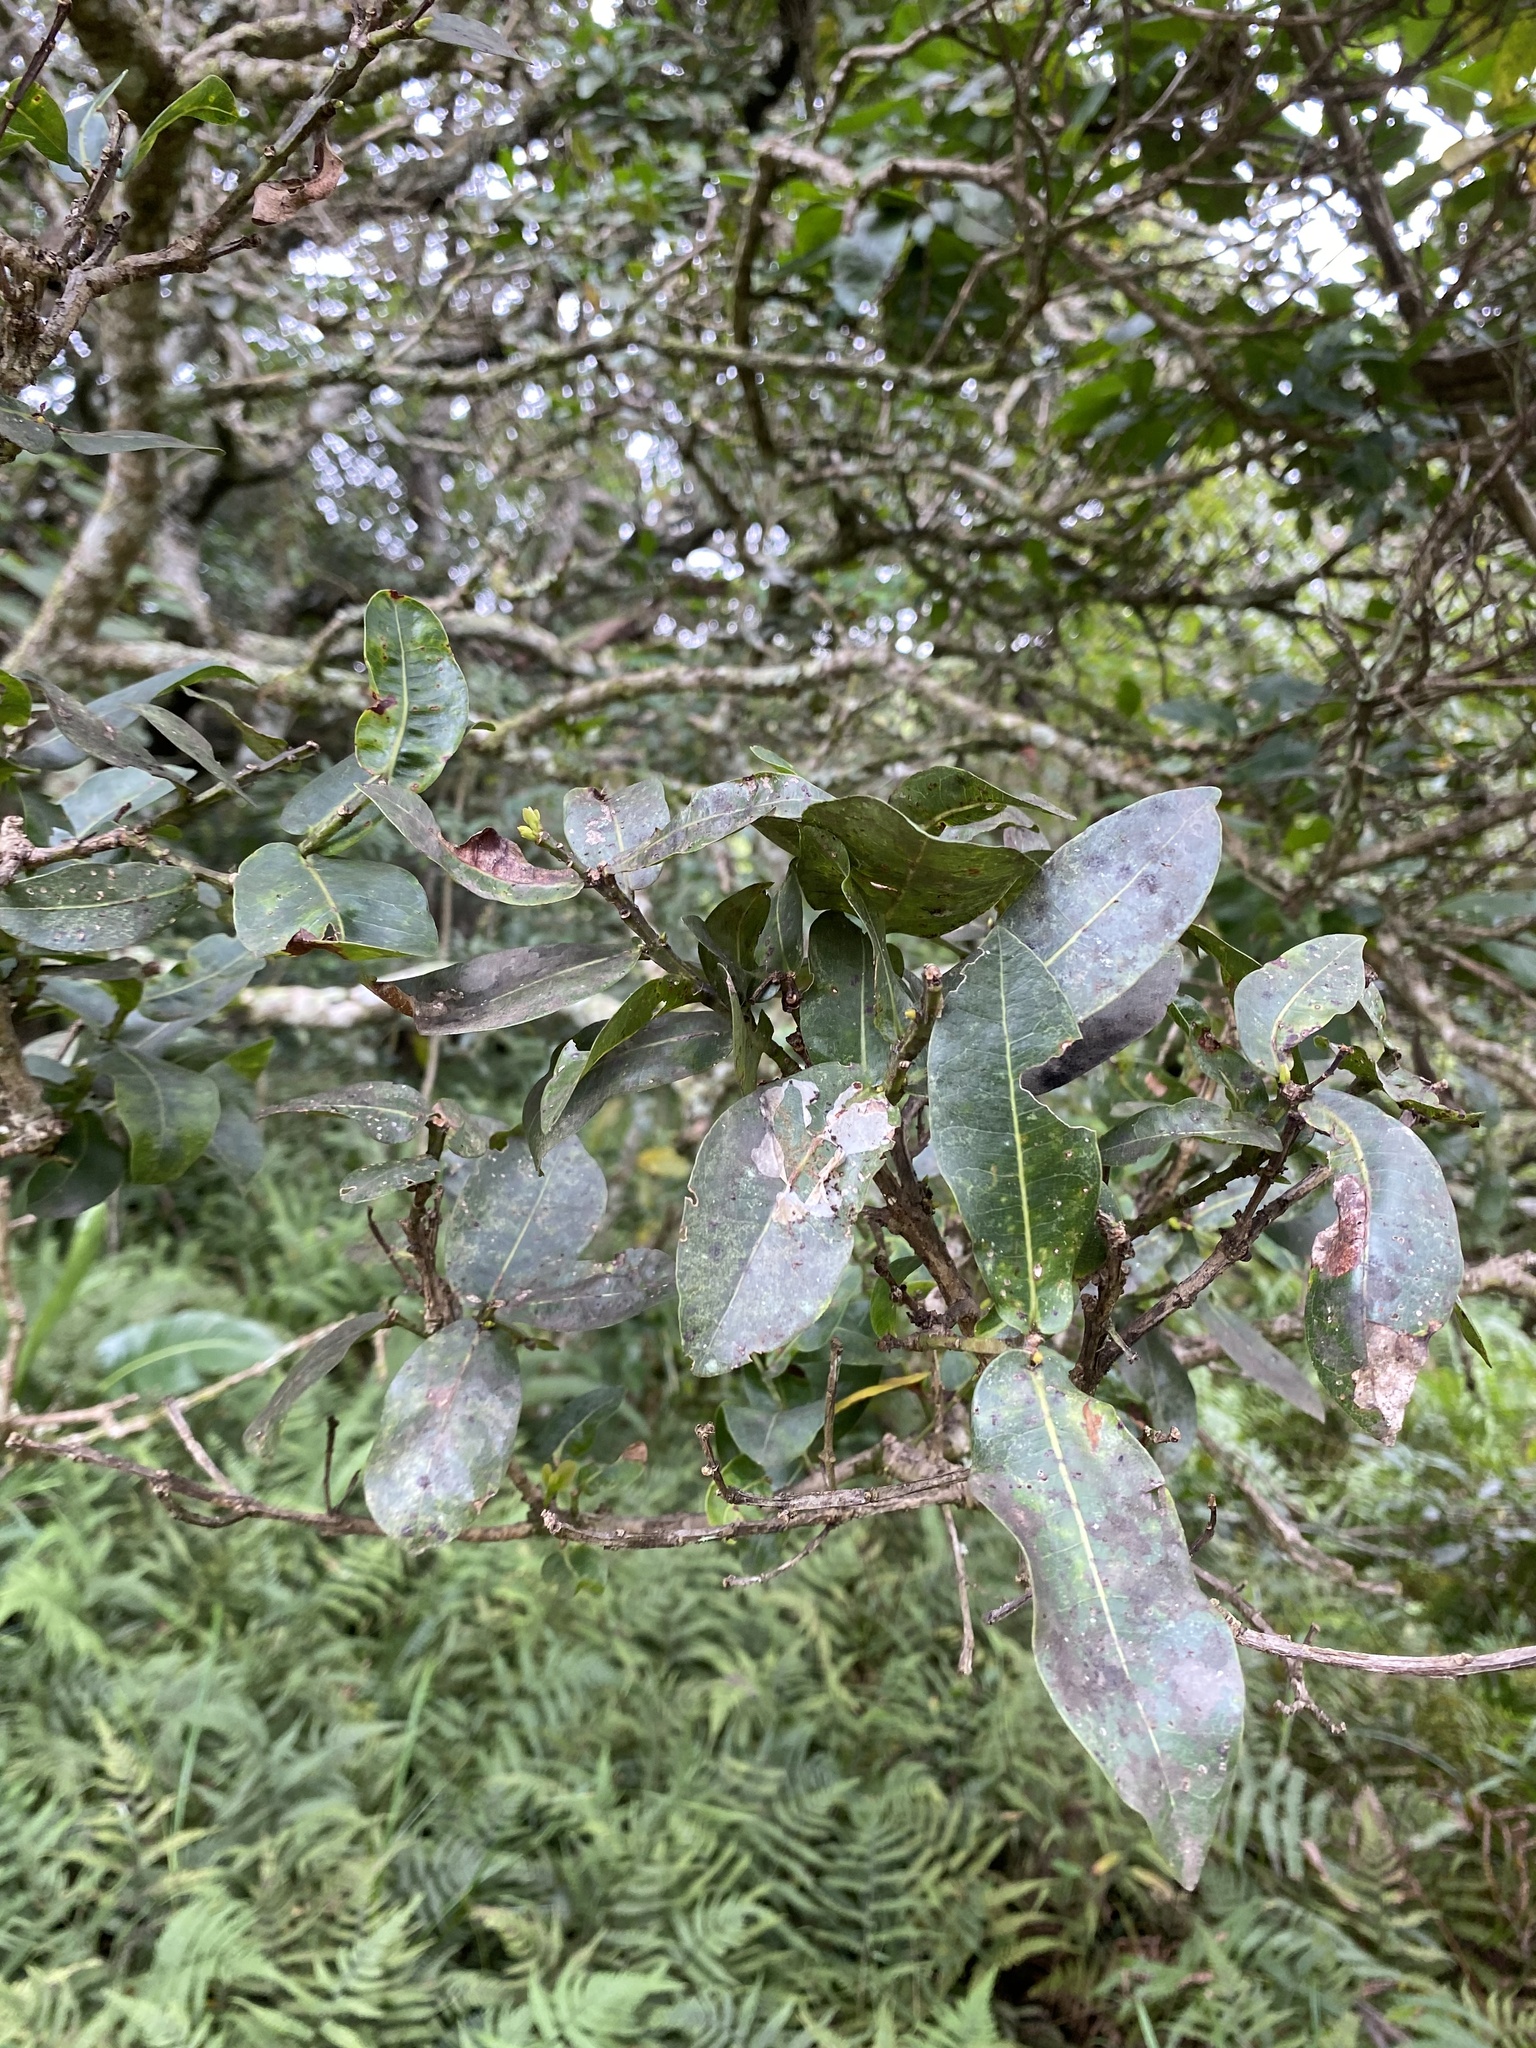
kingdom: Plantae
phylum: Tracheophyta
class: Magnoliopsida
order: Myrtales
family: Myrtaceae
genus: Syzygium
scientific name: Syzygium cordatum
